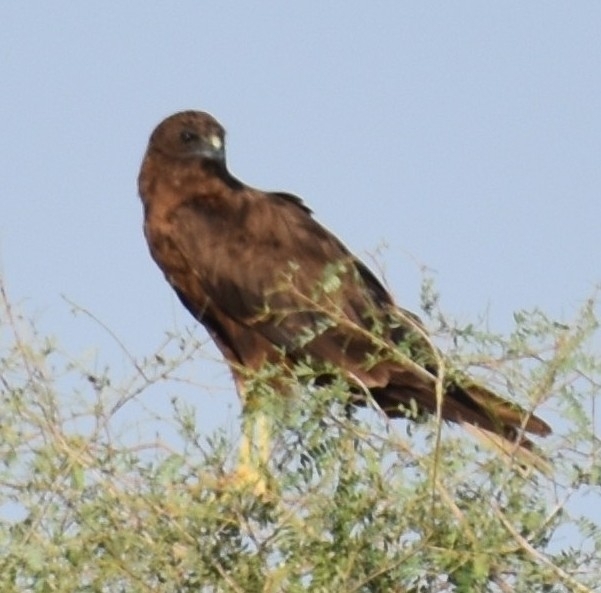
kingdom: Animalia
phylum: Chordata
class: Aves
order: Accipitriformes
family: Accipitridae
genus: Circus
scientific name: Circus aeruginosus
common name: Western marsh harrier
